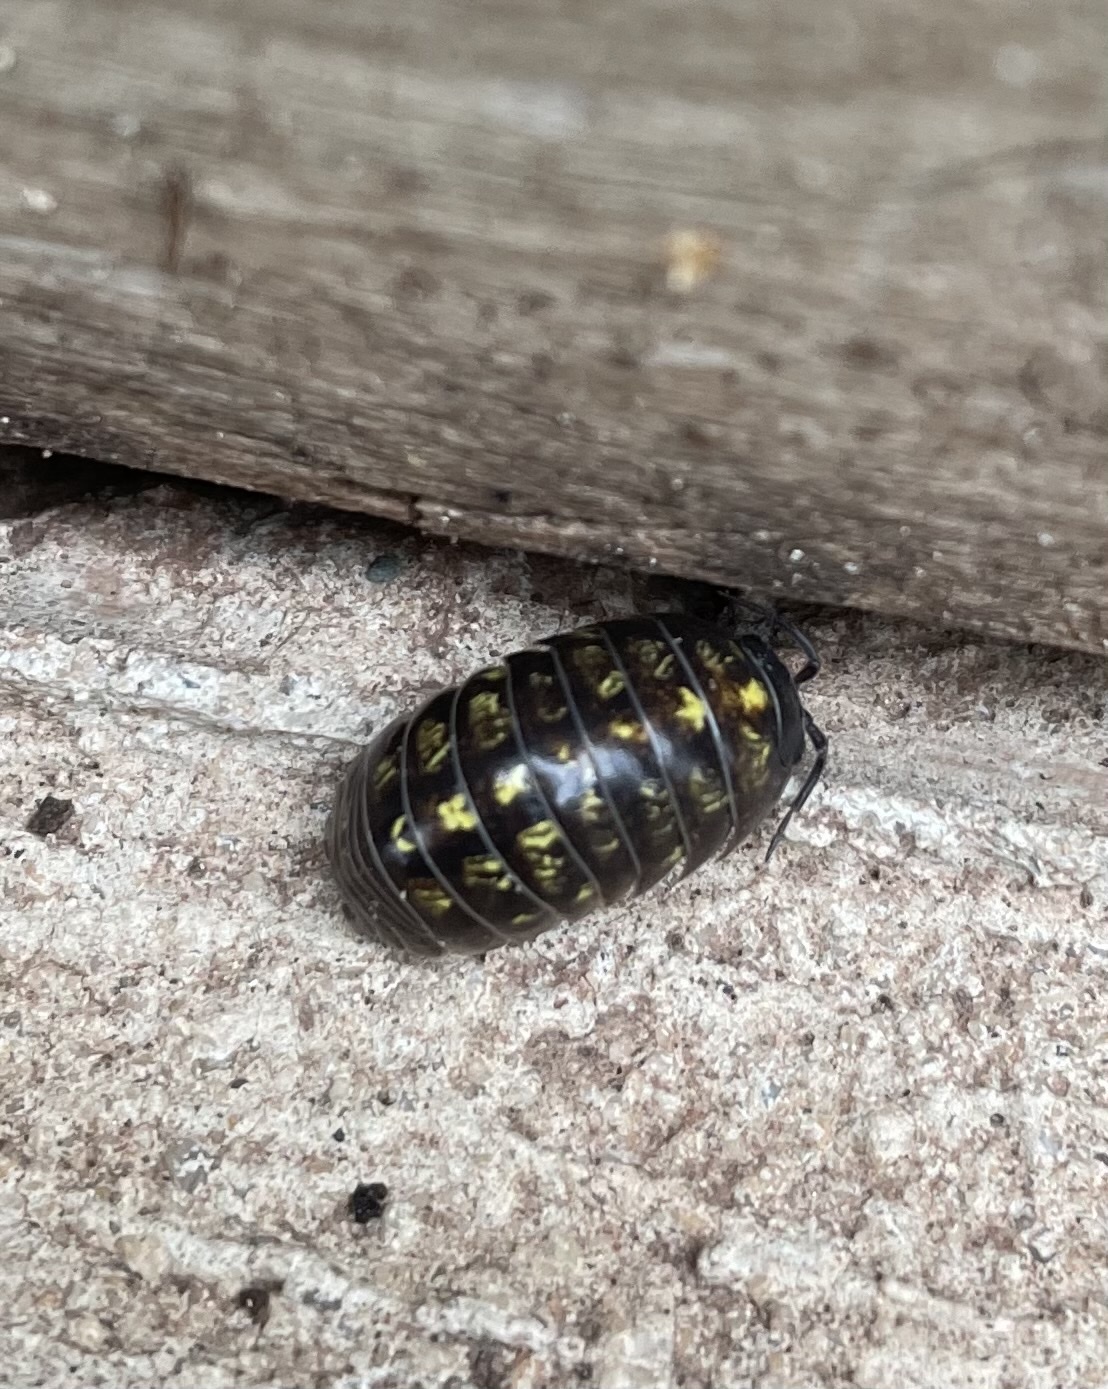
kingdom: Animalia
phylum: Arthropoda
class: Malacostraca
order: Isopoda
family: Armadillidiidae
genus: Armadillidium
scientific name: Armadillidium vulgare
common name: Common pill woodlouse
